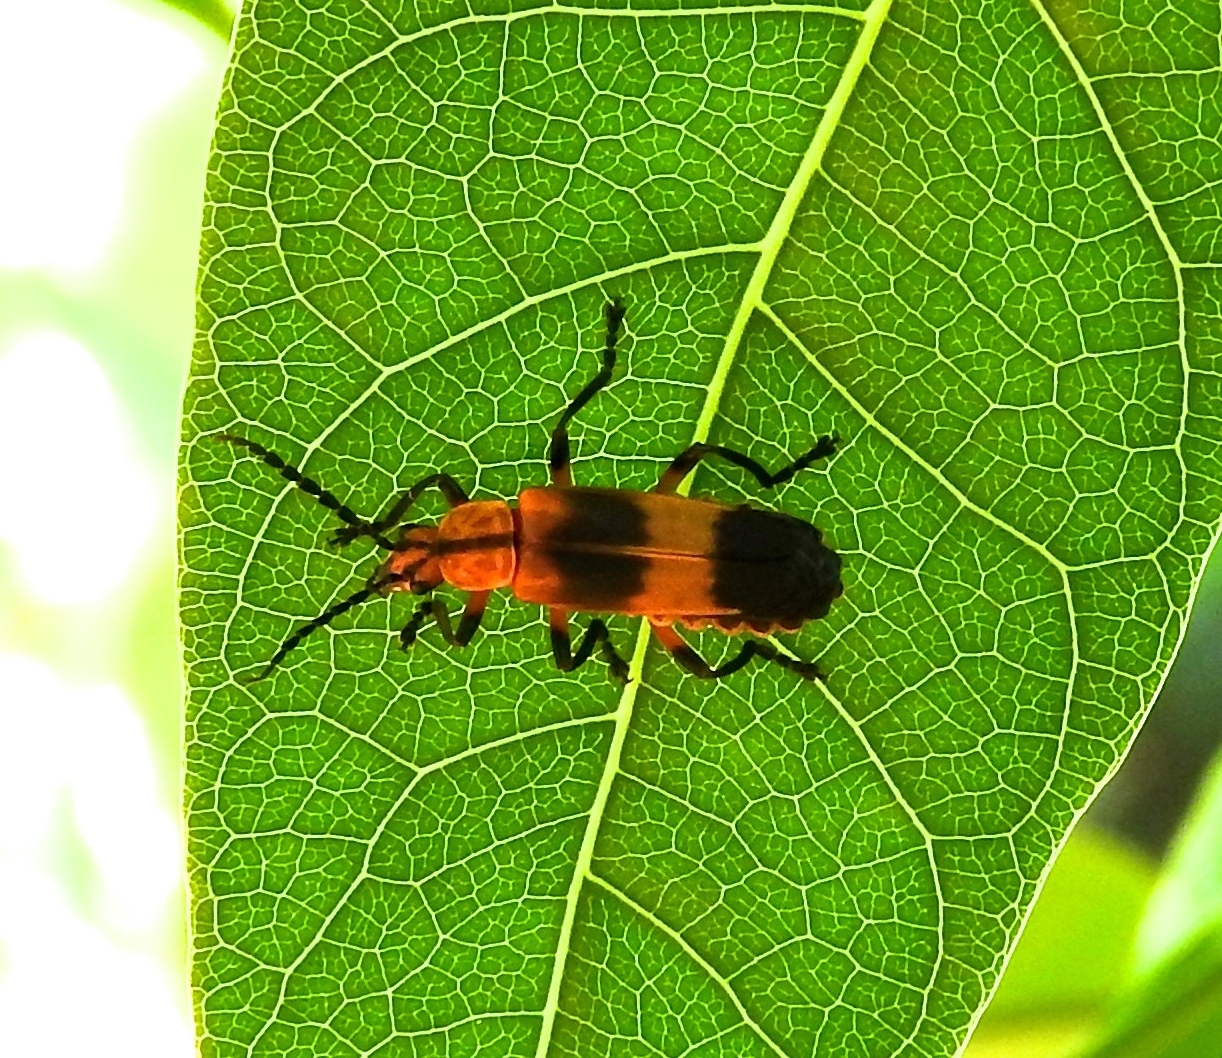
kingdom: Animalia
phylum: Arthropoda
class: Insecta
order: Coleoptera
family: Cantharidae
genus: Daiphron
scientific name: Daiphron proteum
